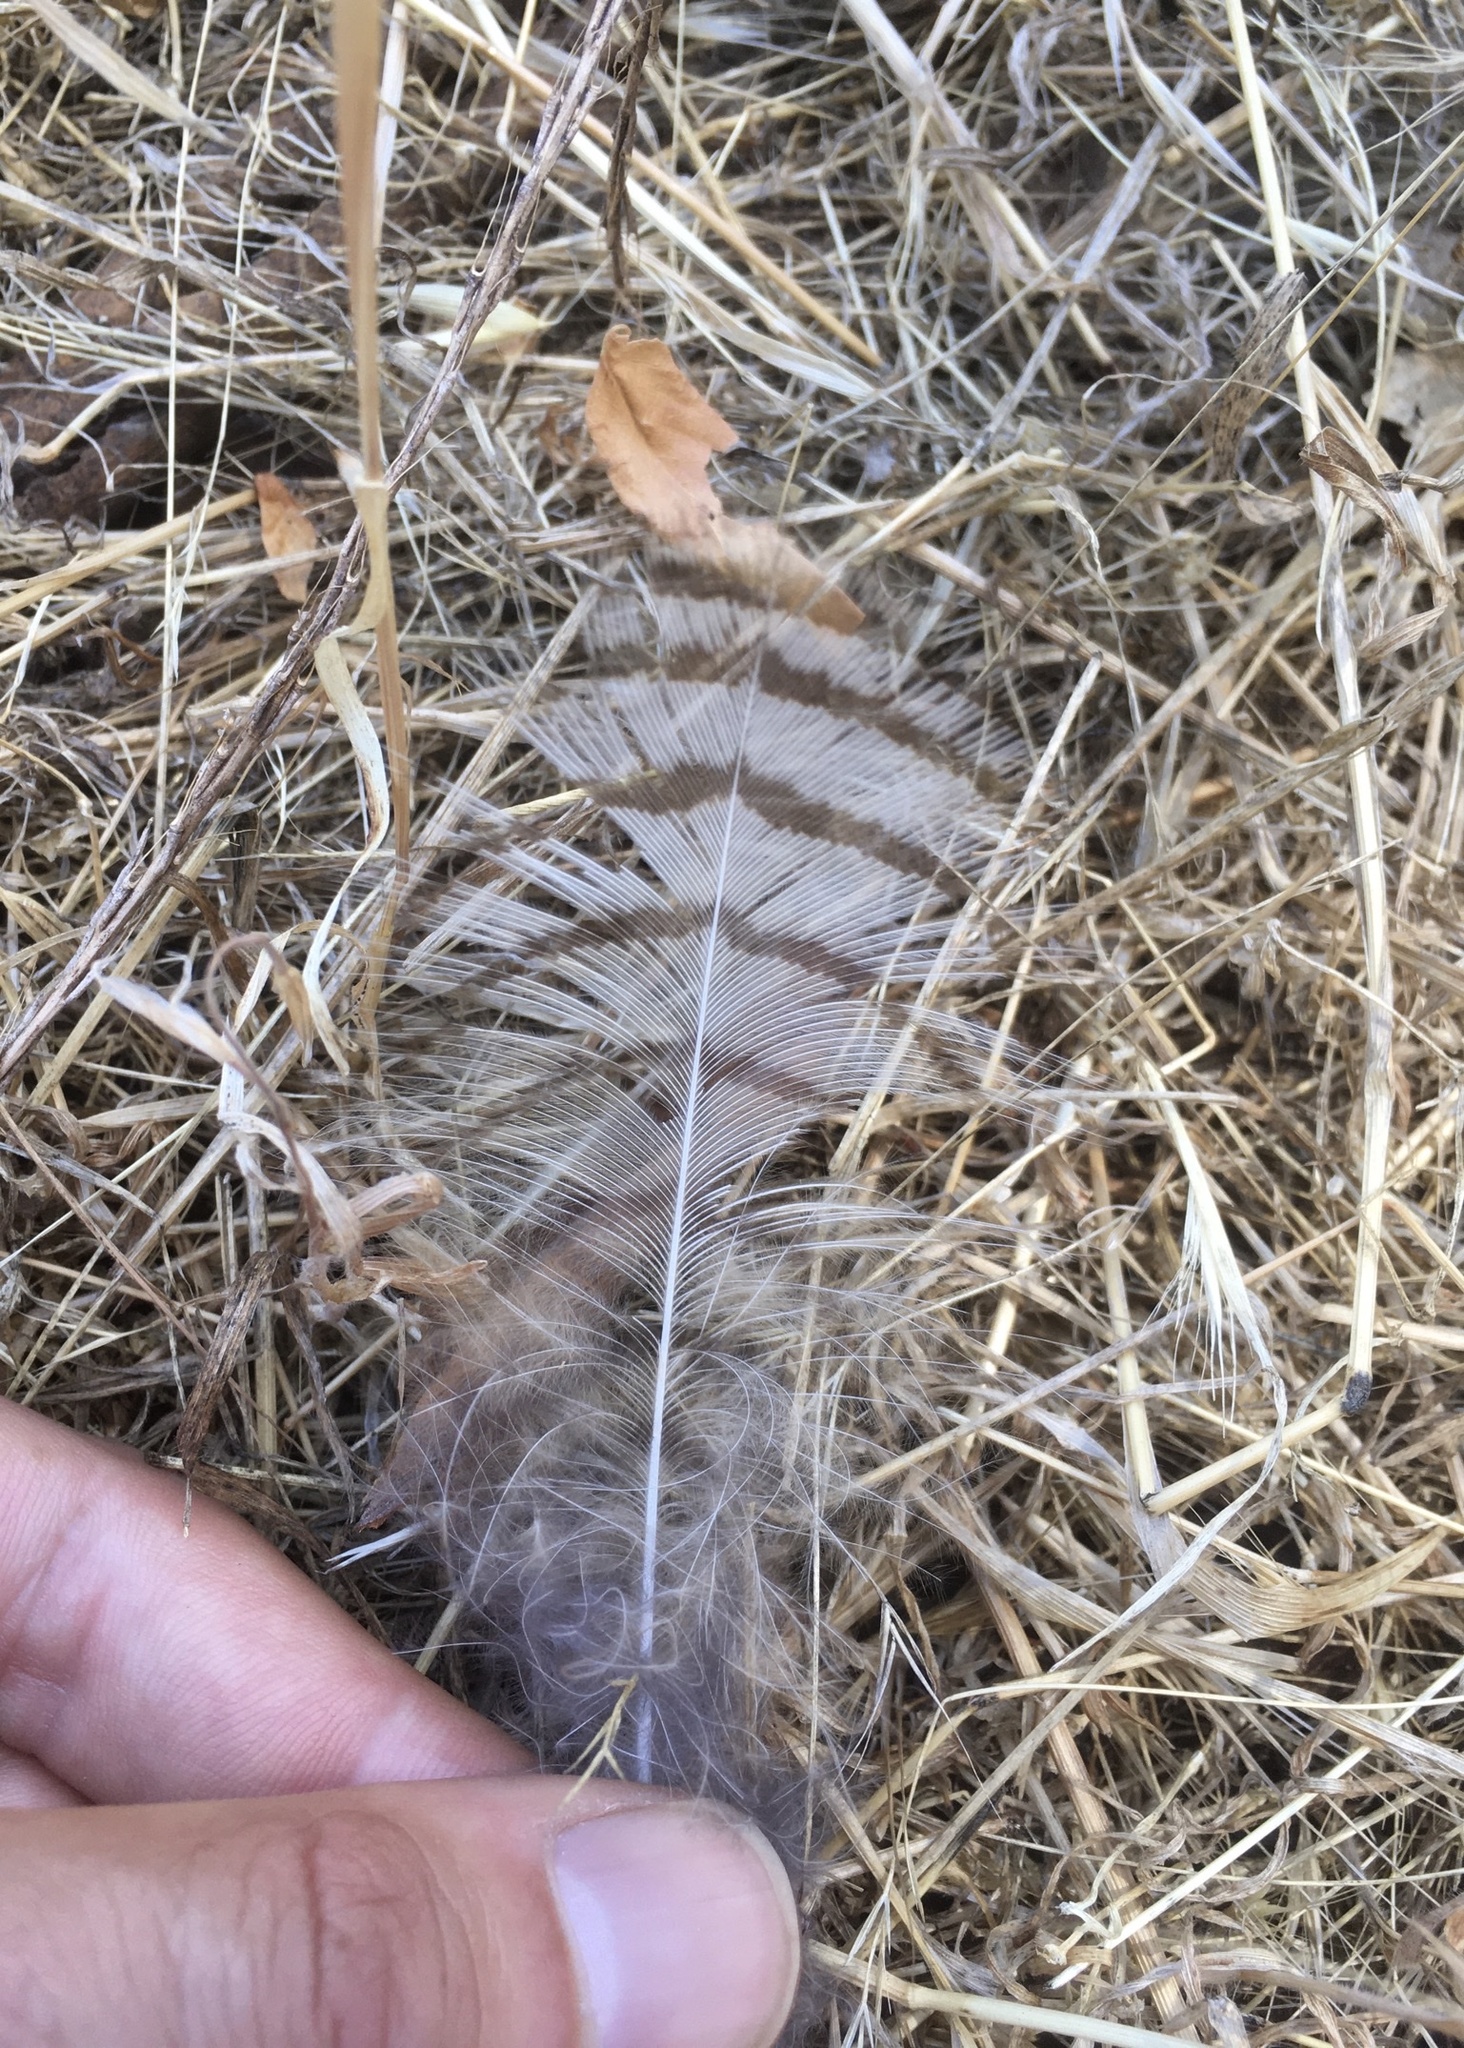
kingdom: Animalia
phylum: Chordata
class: Aves
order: Strigiformes
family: Strigidae
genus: Bubo
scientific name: Bubo virginianus
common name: Great horned owl
